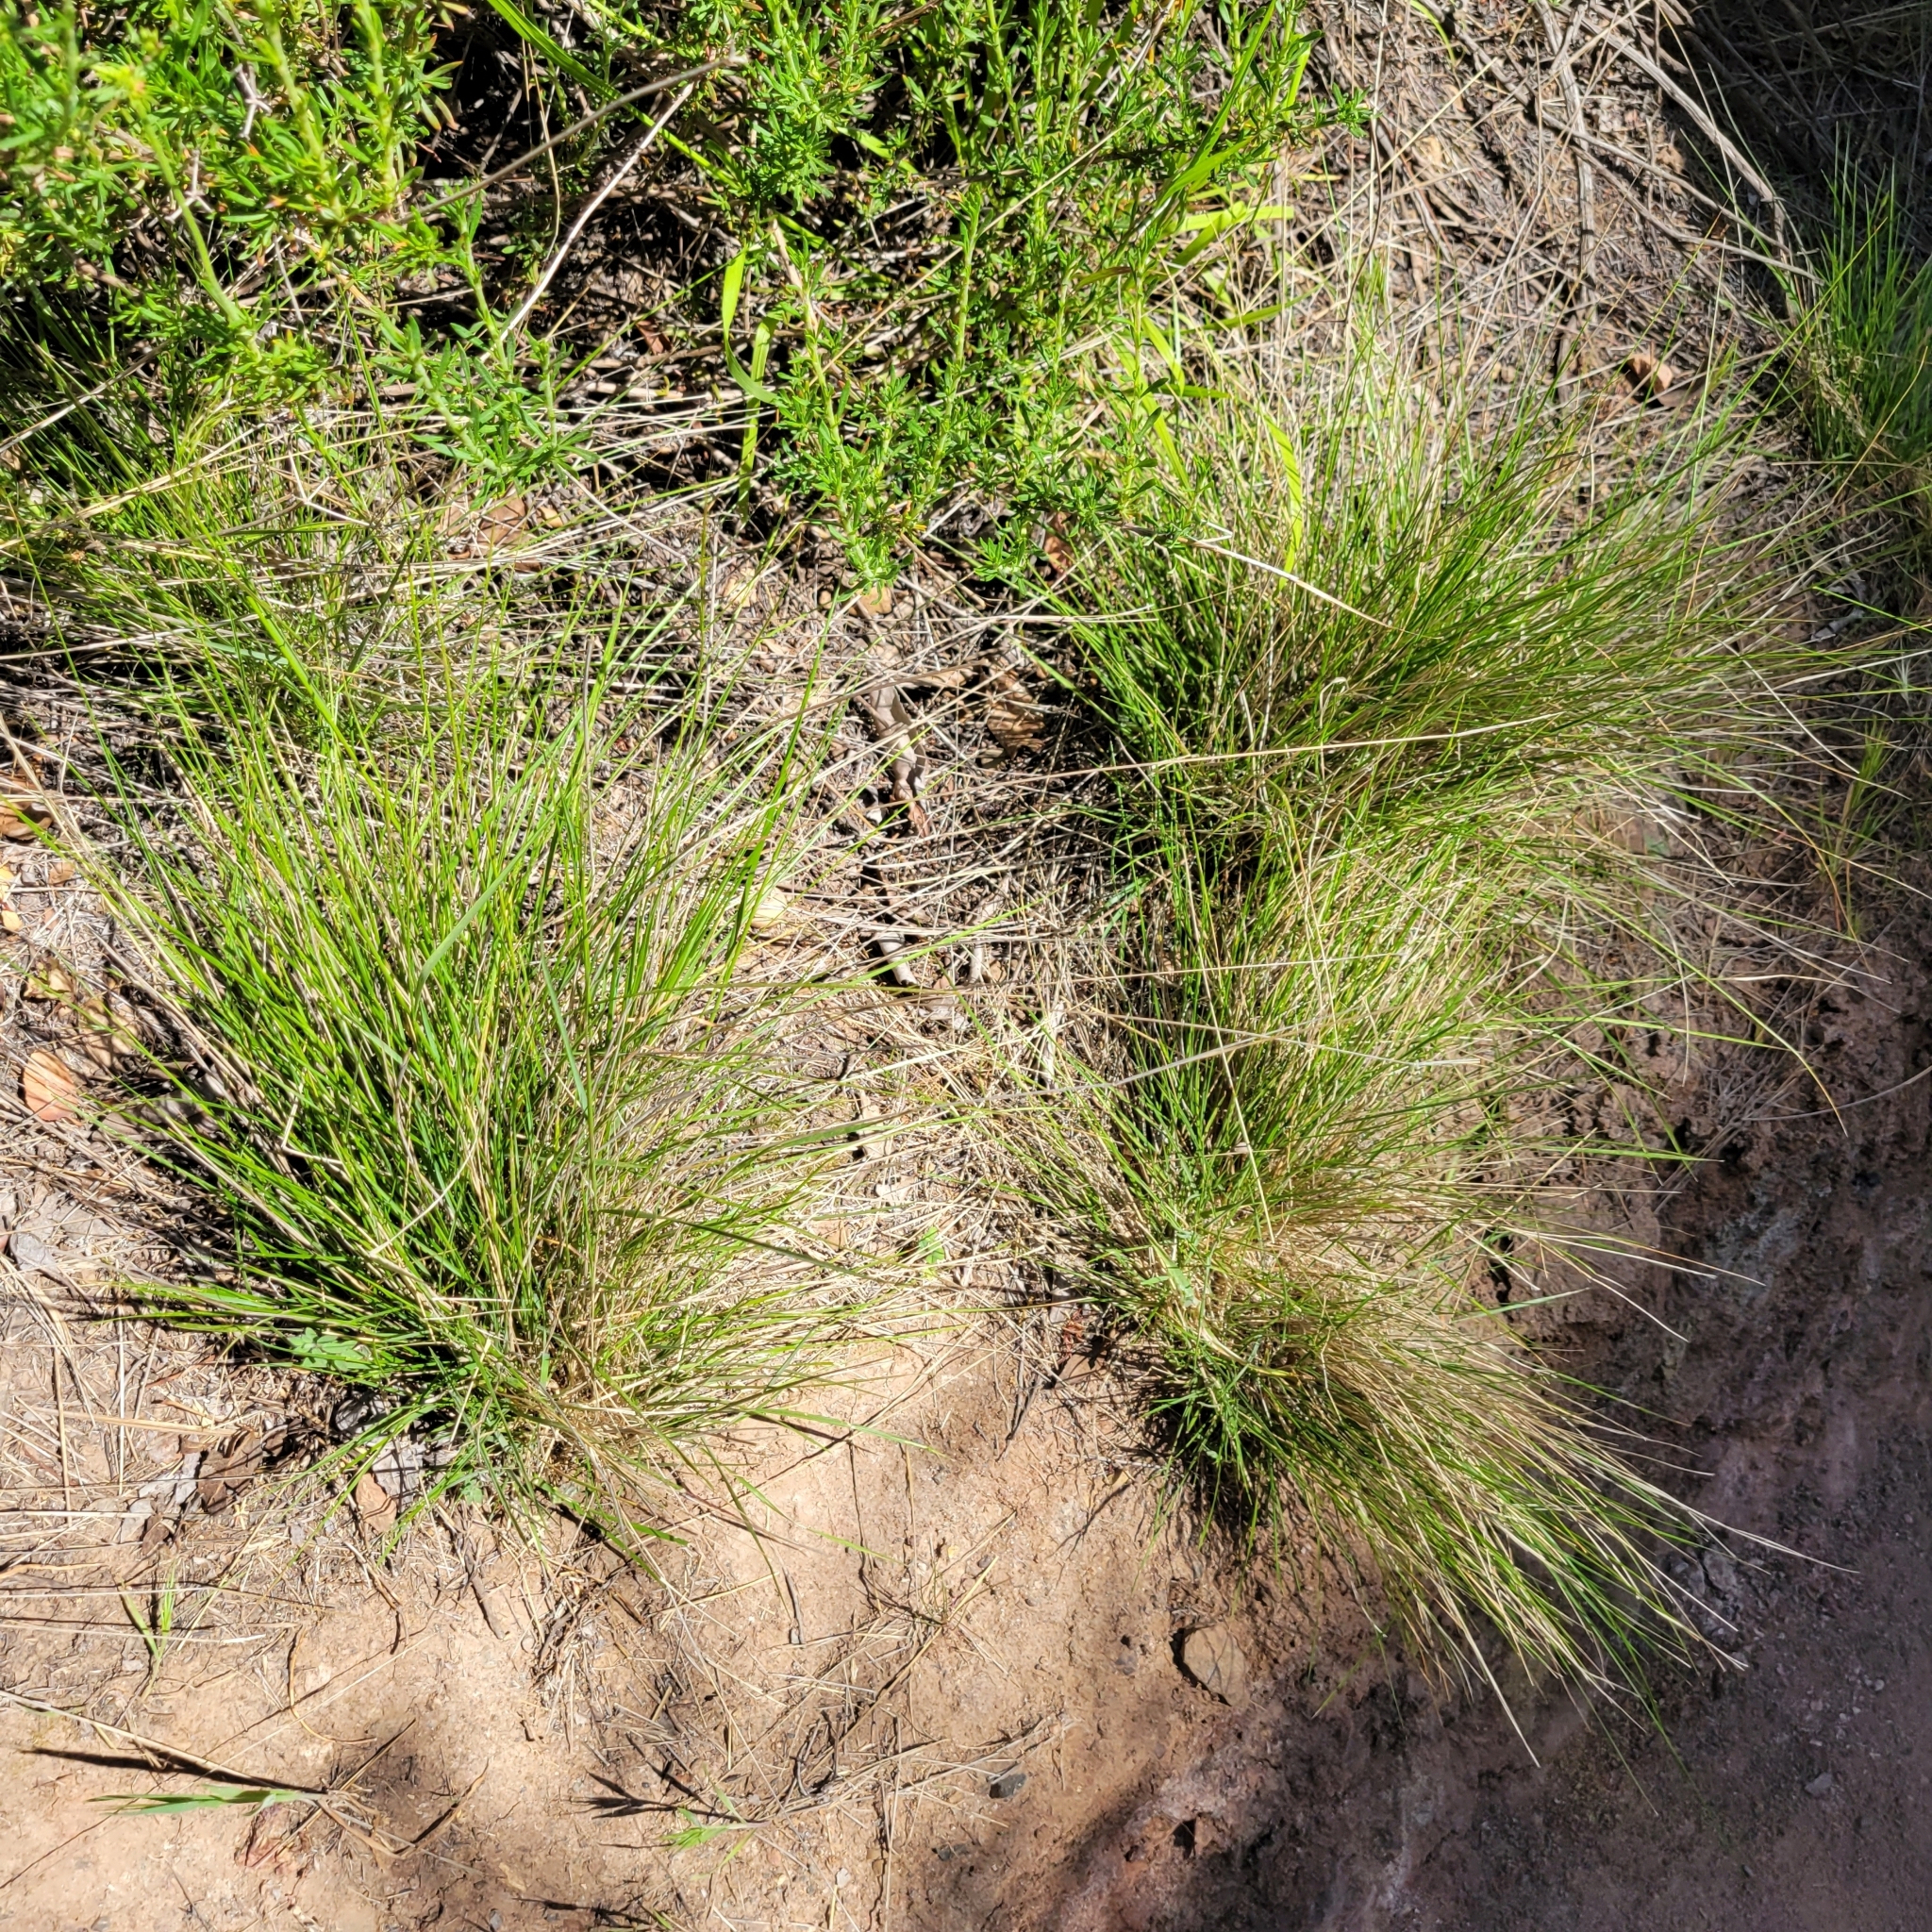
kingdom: Plantae
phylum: Tracheophyta
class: Liliopsida
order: Poales
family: Poaceae
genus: Muhlenbergia
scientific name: Muhlenbergia rigens
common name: Deer grass
